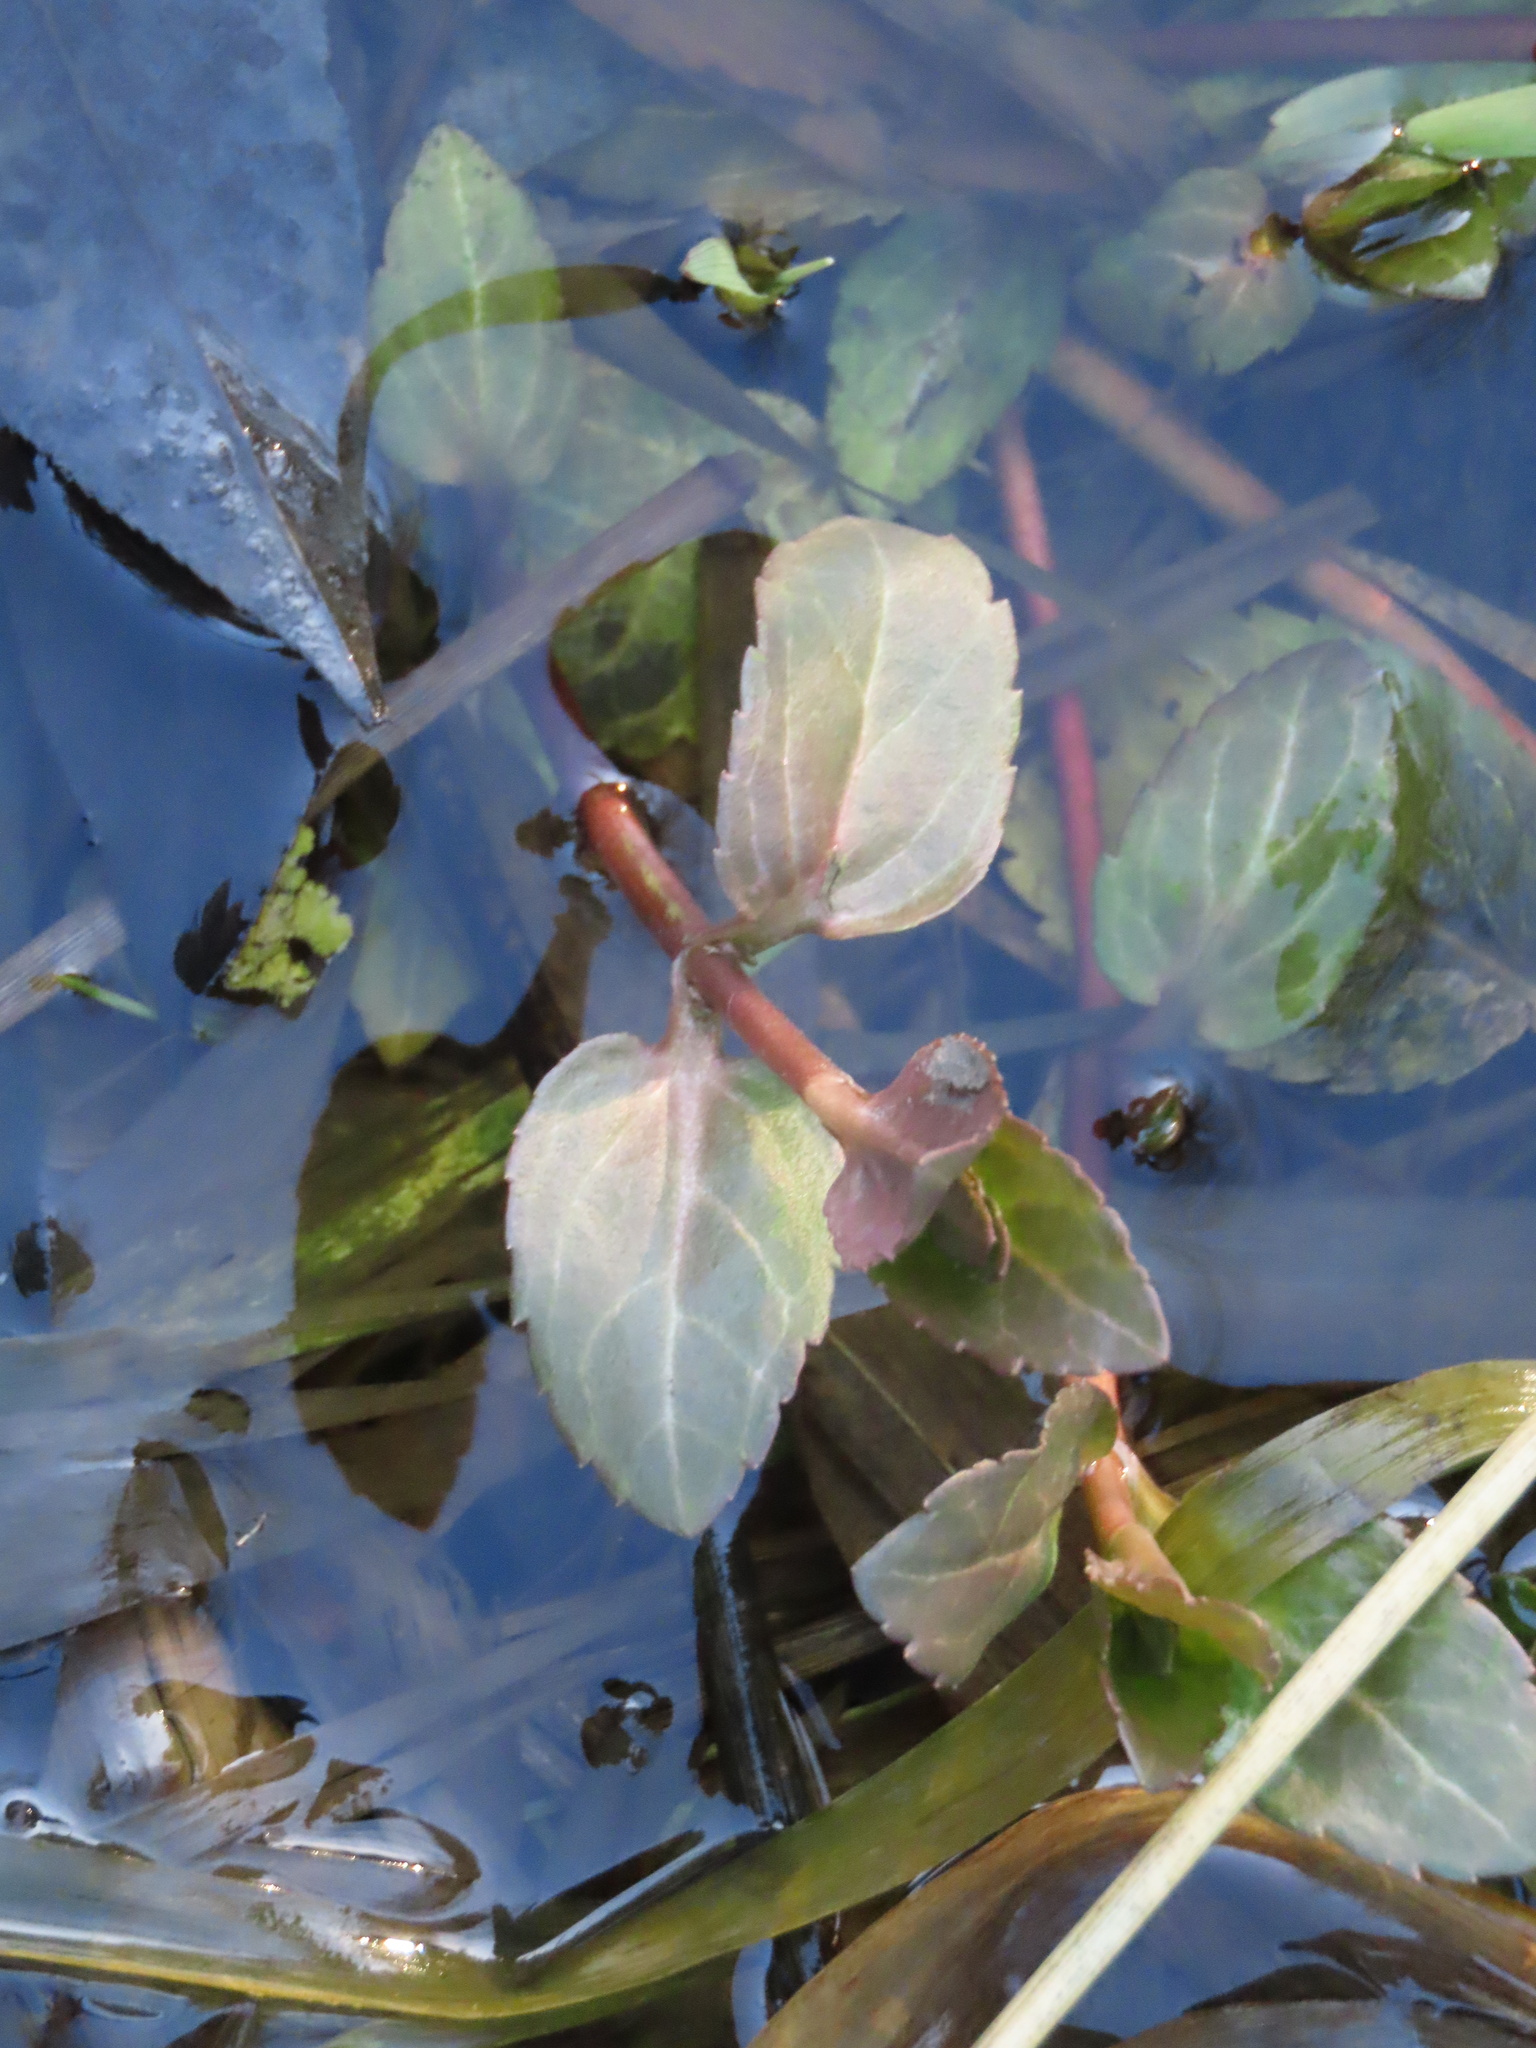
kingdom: Plantae
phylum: Tracheophyta
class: Magnoliopsida
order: Lamiales
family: Plantaginaceae
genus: Veronica
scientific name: Veronica americana
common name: American brooklime
